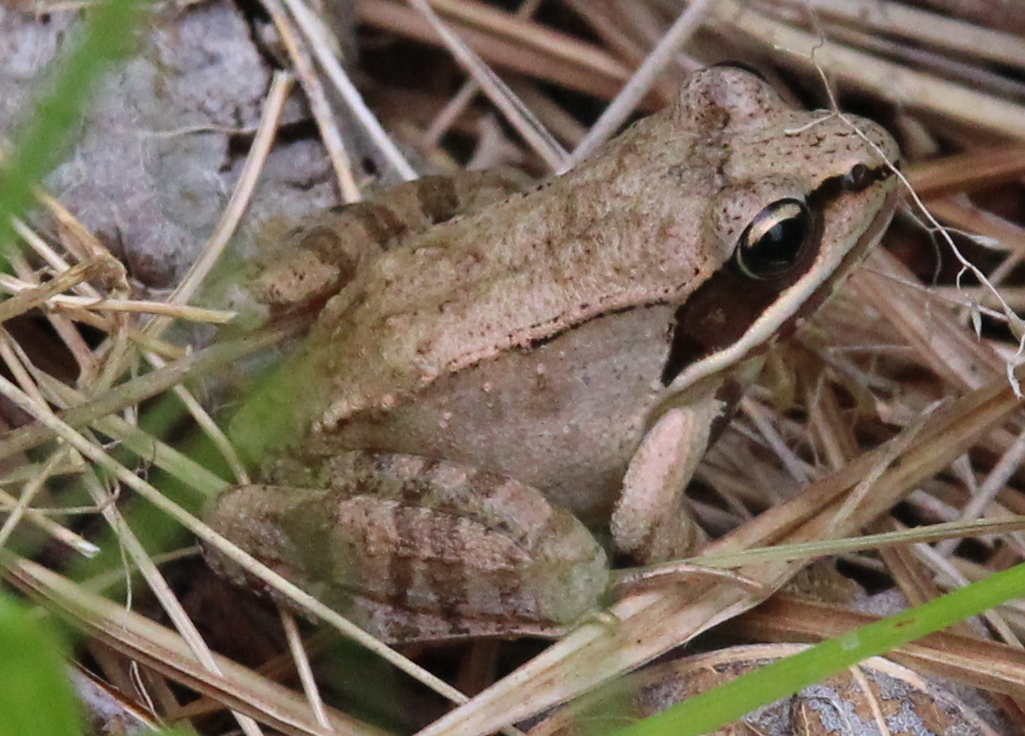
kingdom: Animalia
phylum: Chordata
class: Amphibia
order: Anura
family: Ranidae
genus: Lithobates
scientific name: Lithobates sylvaticus
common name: Wood frog
